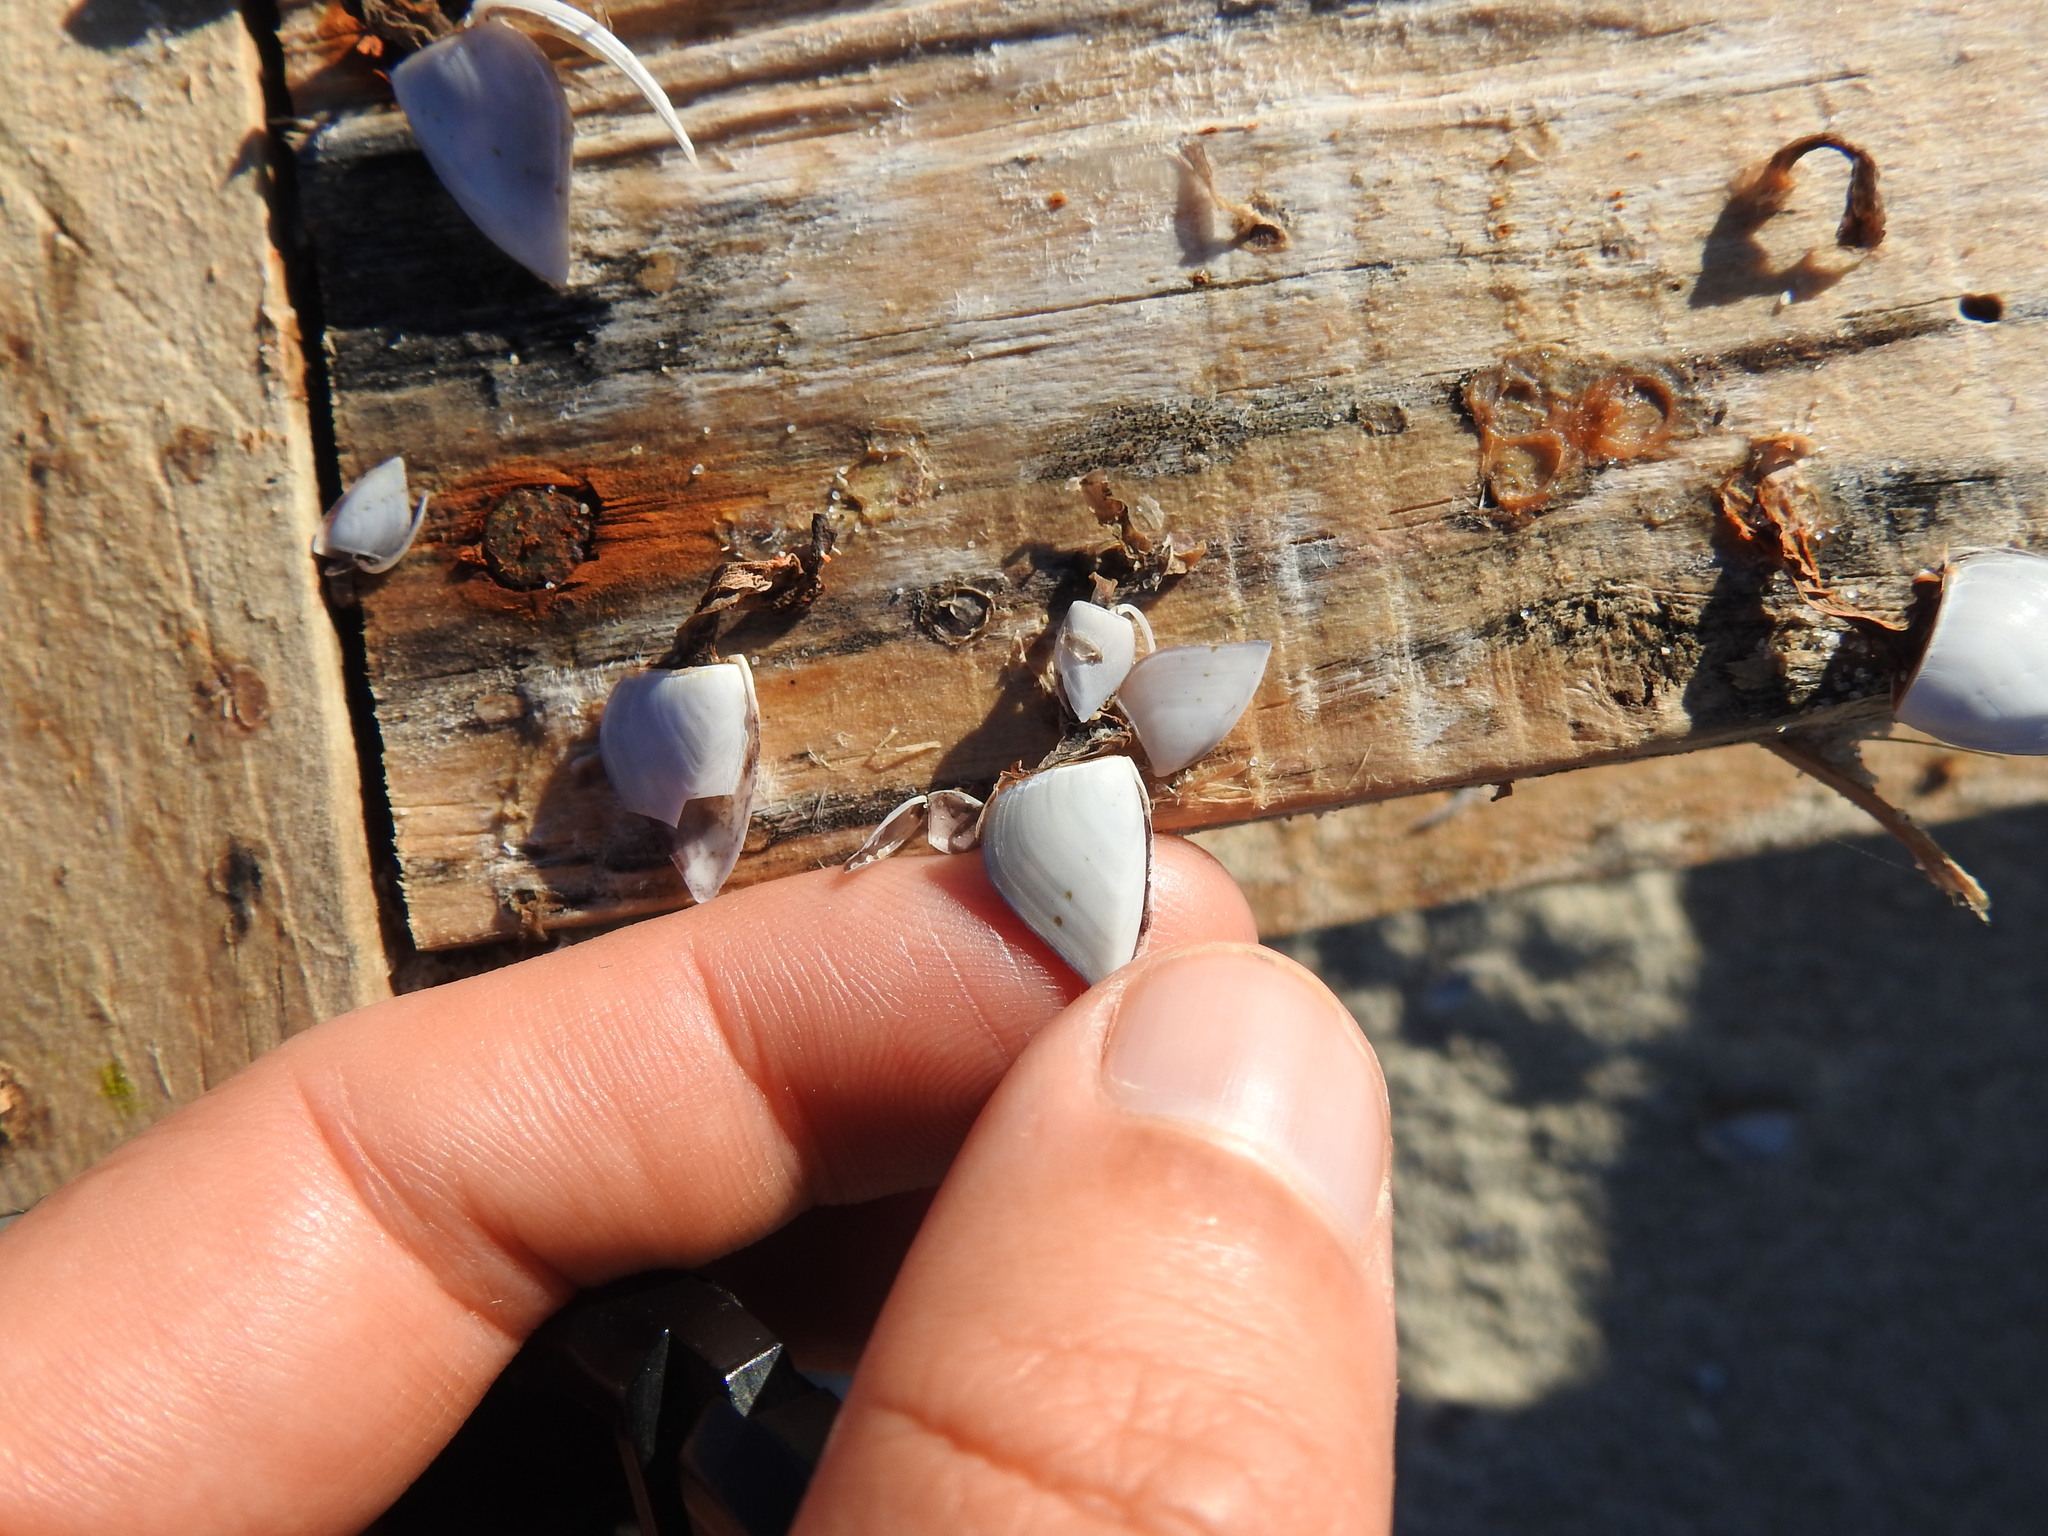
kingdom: Animalia
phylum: Arthropoda
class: Maxillopoda
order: Pedunculata
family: Lepadidae
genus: Lepas
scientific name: Lepas indica
